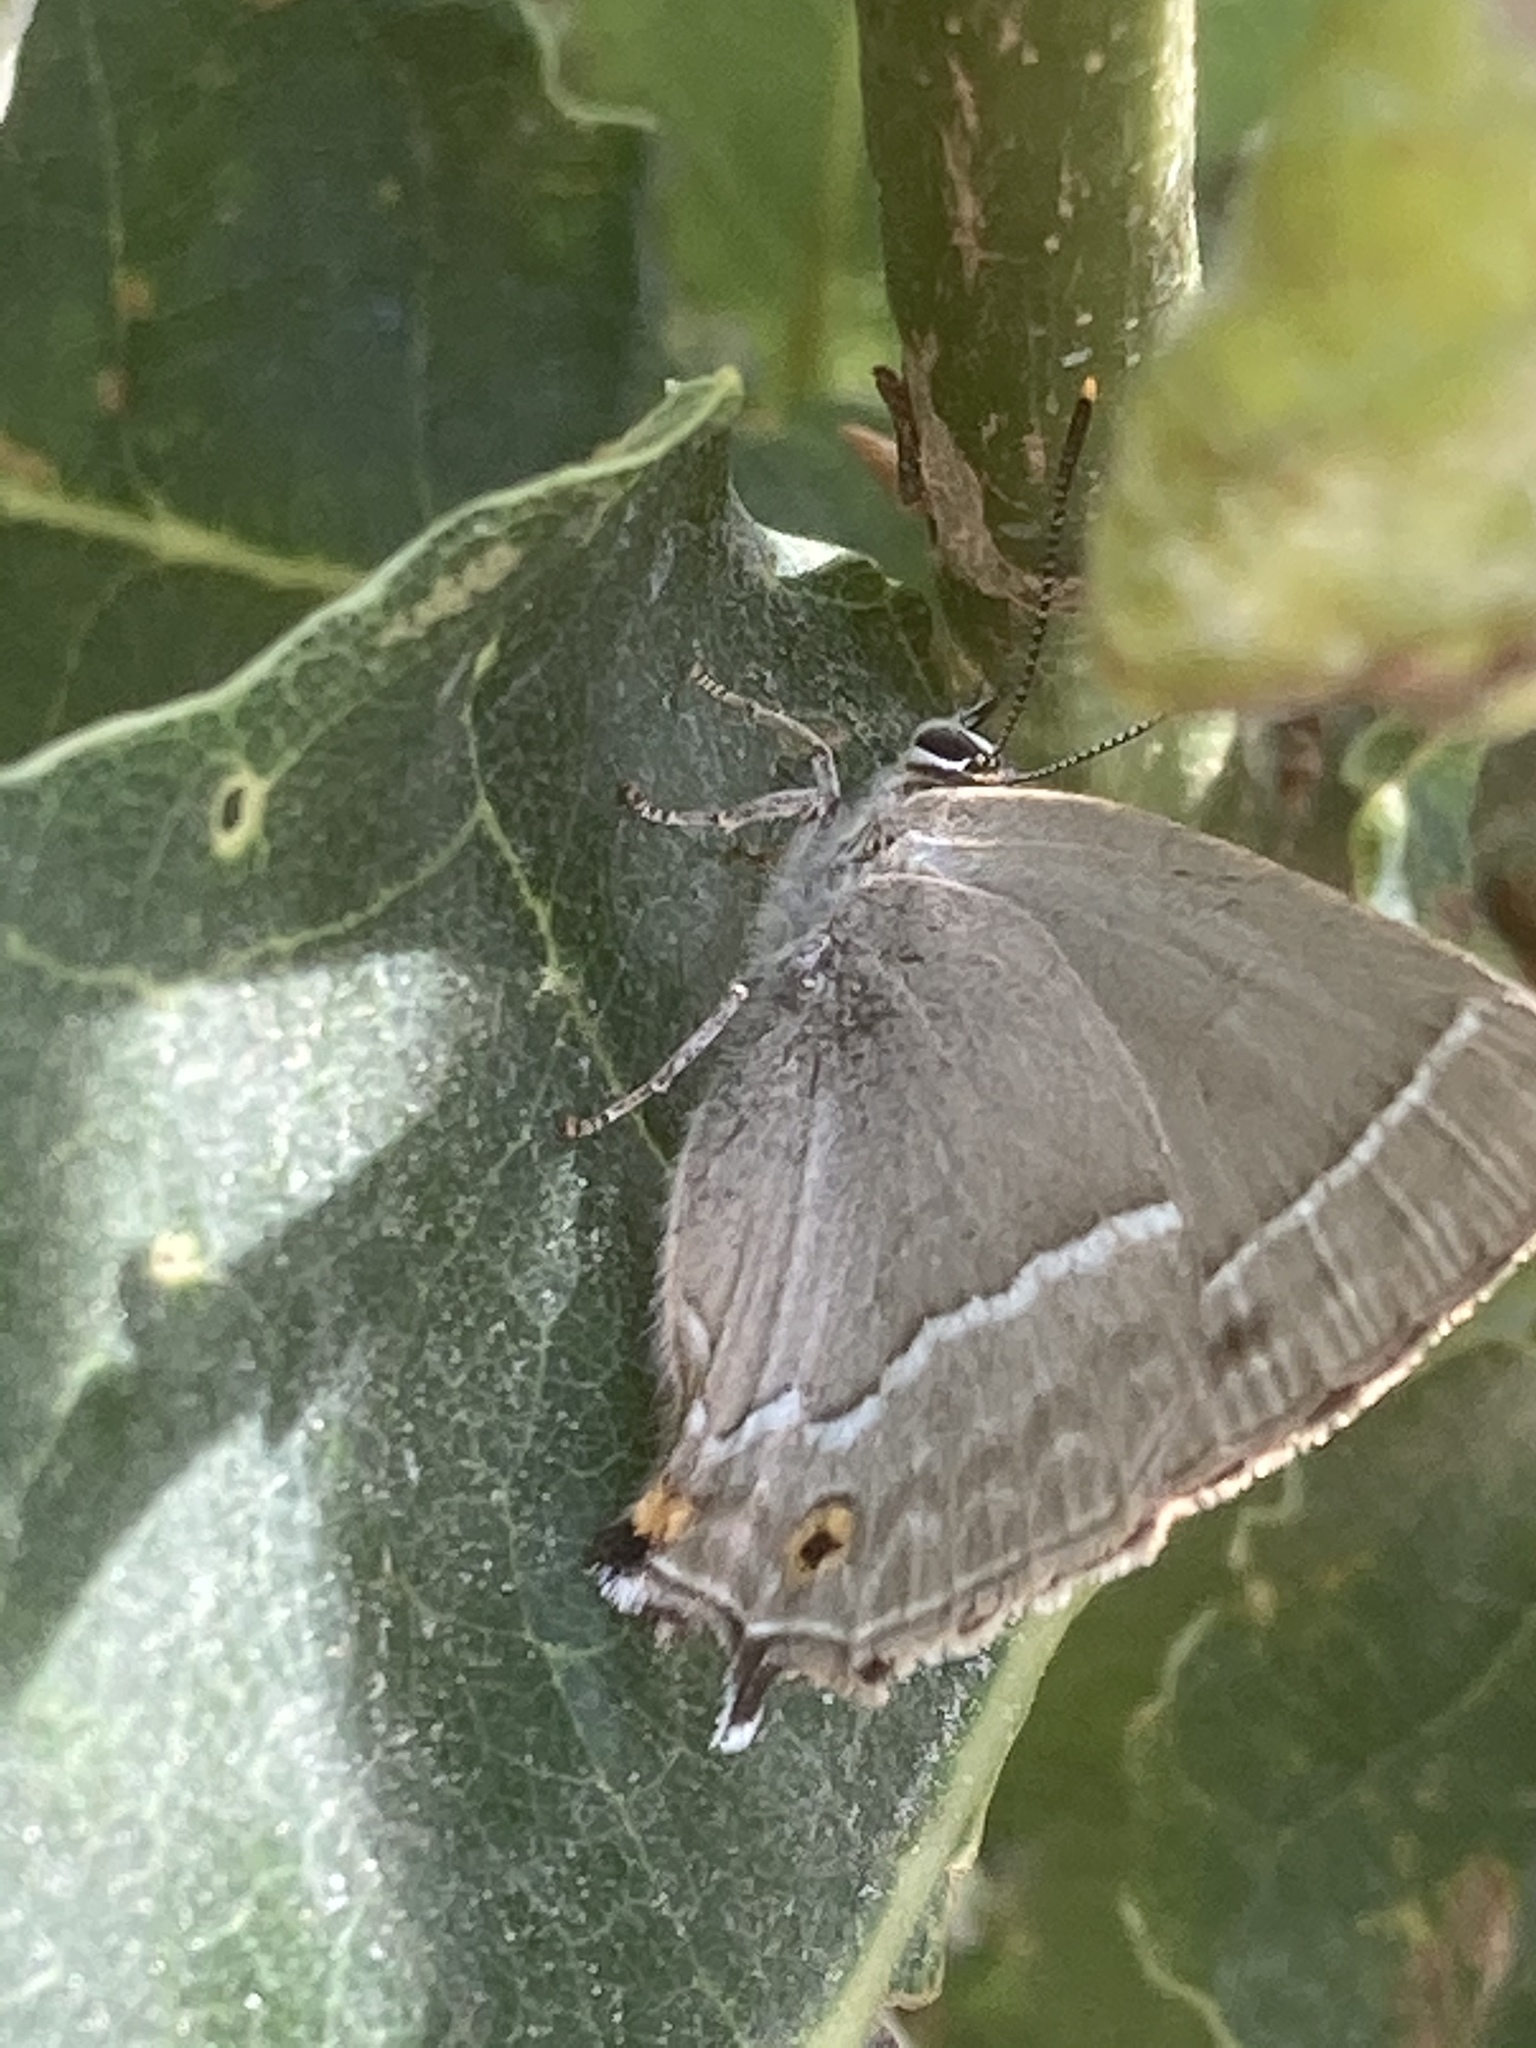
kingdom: Animalia
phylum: Arthropoda
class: Insecta
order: Lepidoptera
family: Lycaenidae
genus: Quercusia
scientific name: Quercusia quercus
